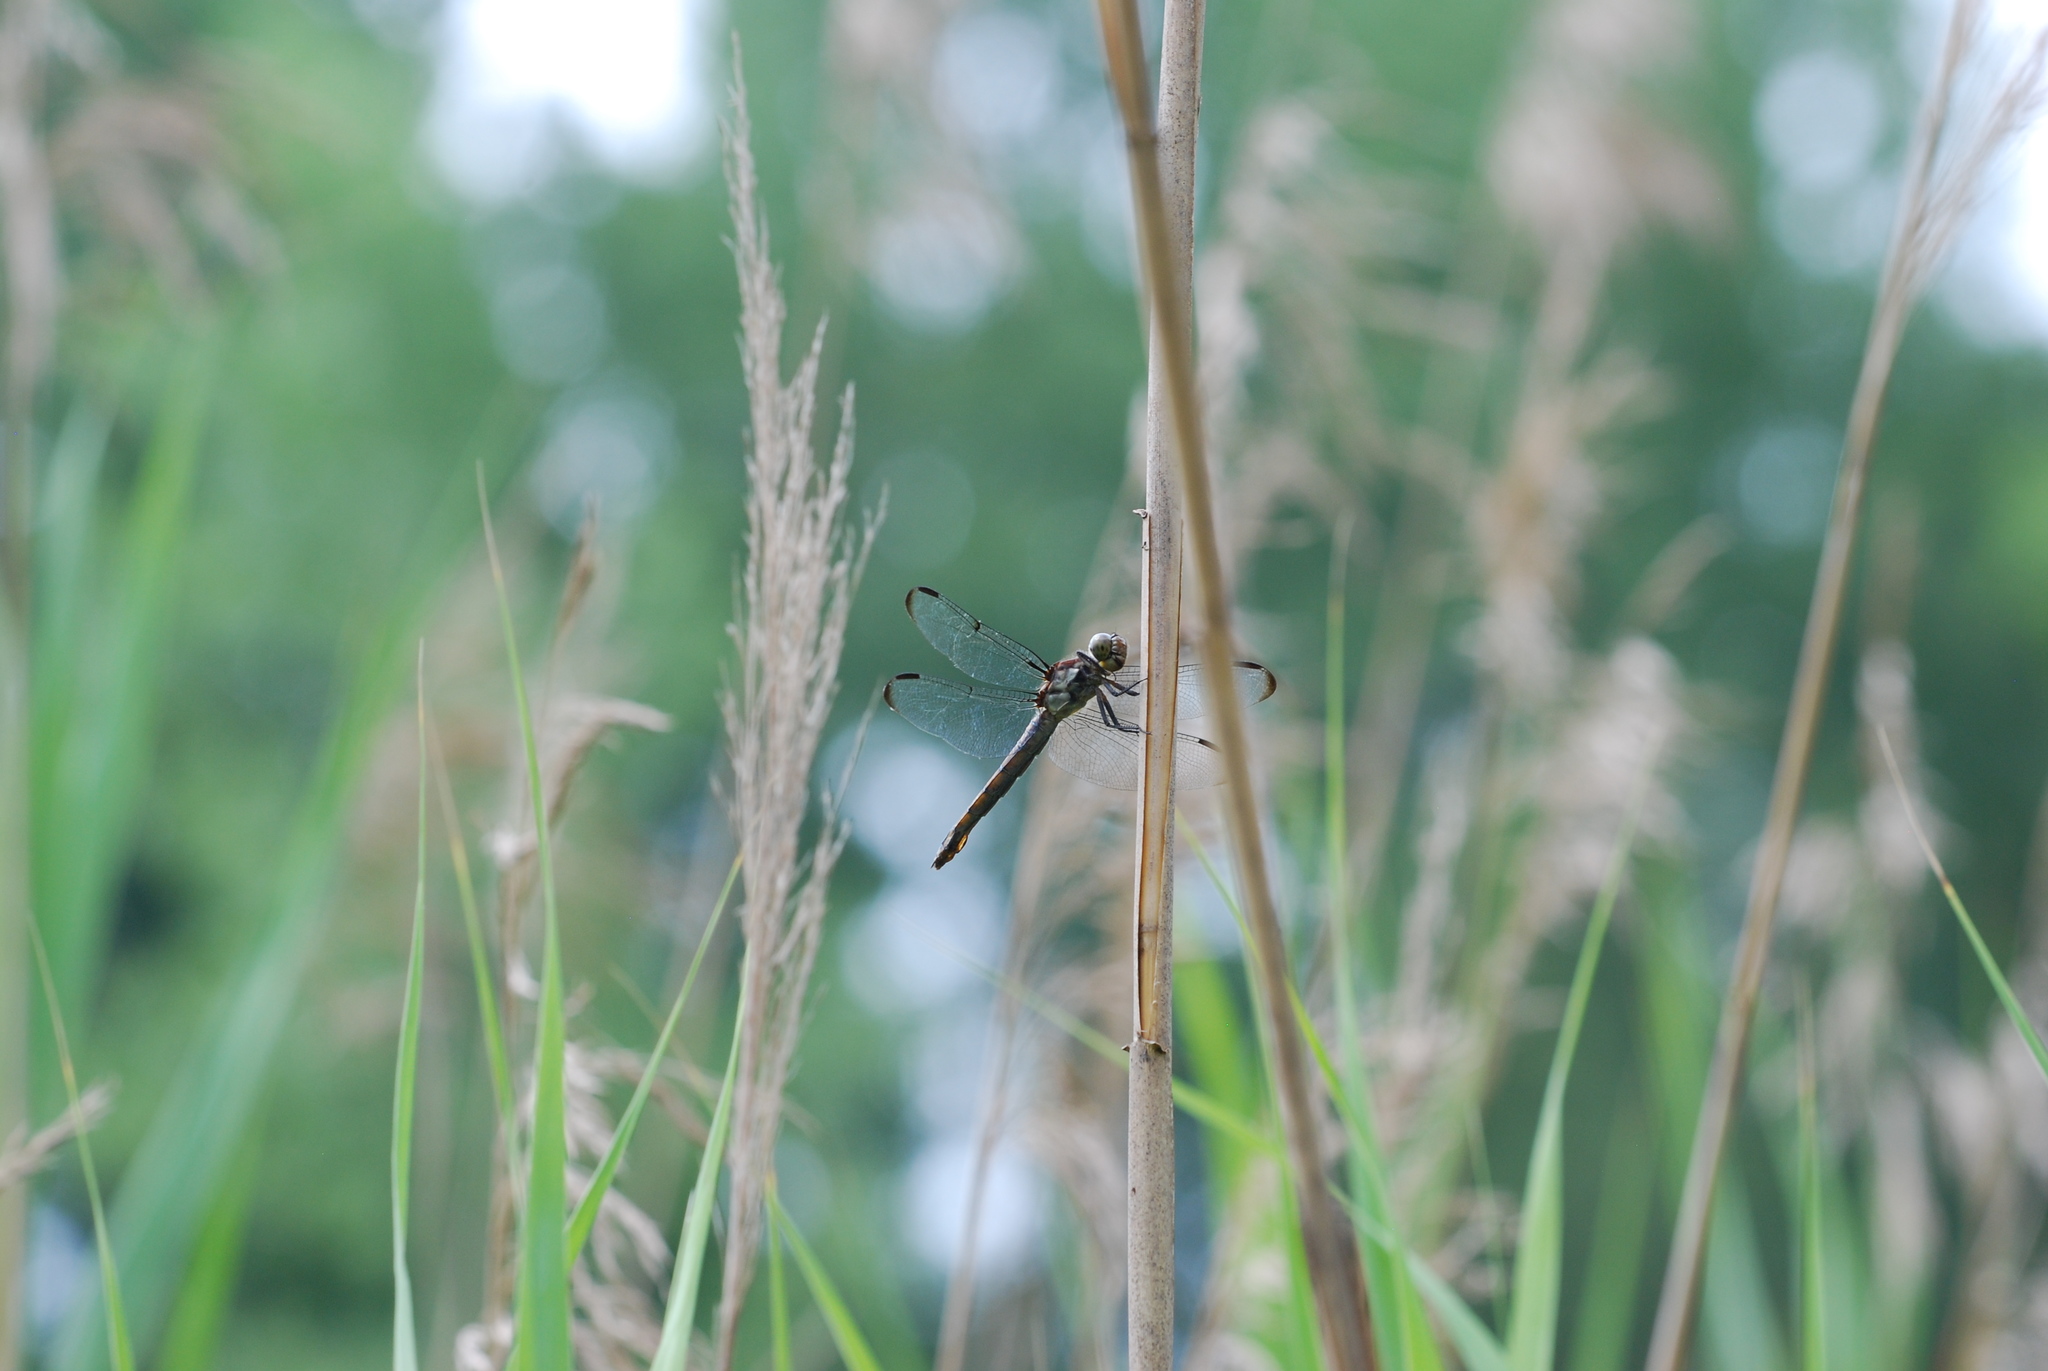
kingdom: Animalia
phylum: Arthropoda
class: Insecta
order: Odonata
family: Libellulidae
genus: Libellula
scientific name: Libellula incesta
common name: Slaty skimmer
